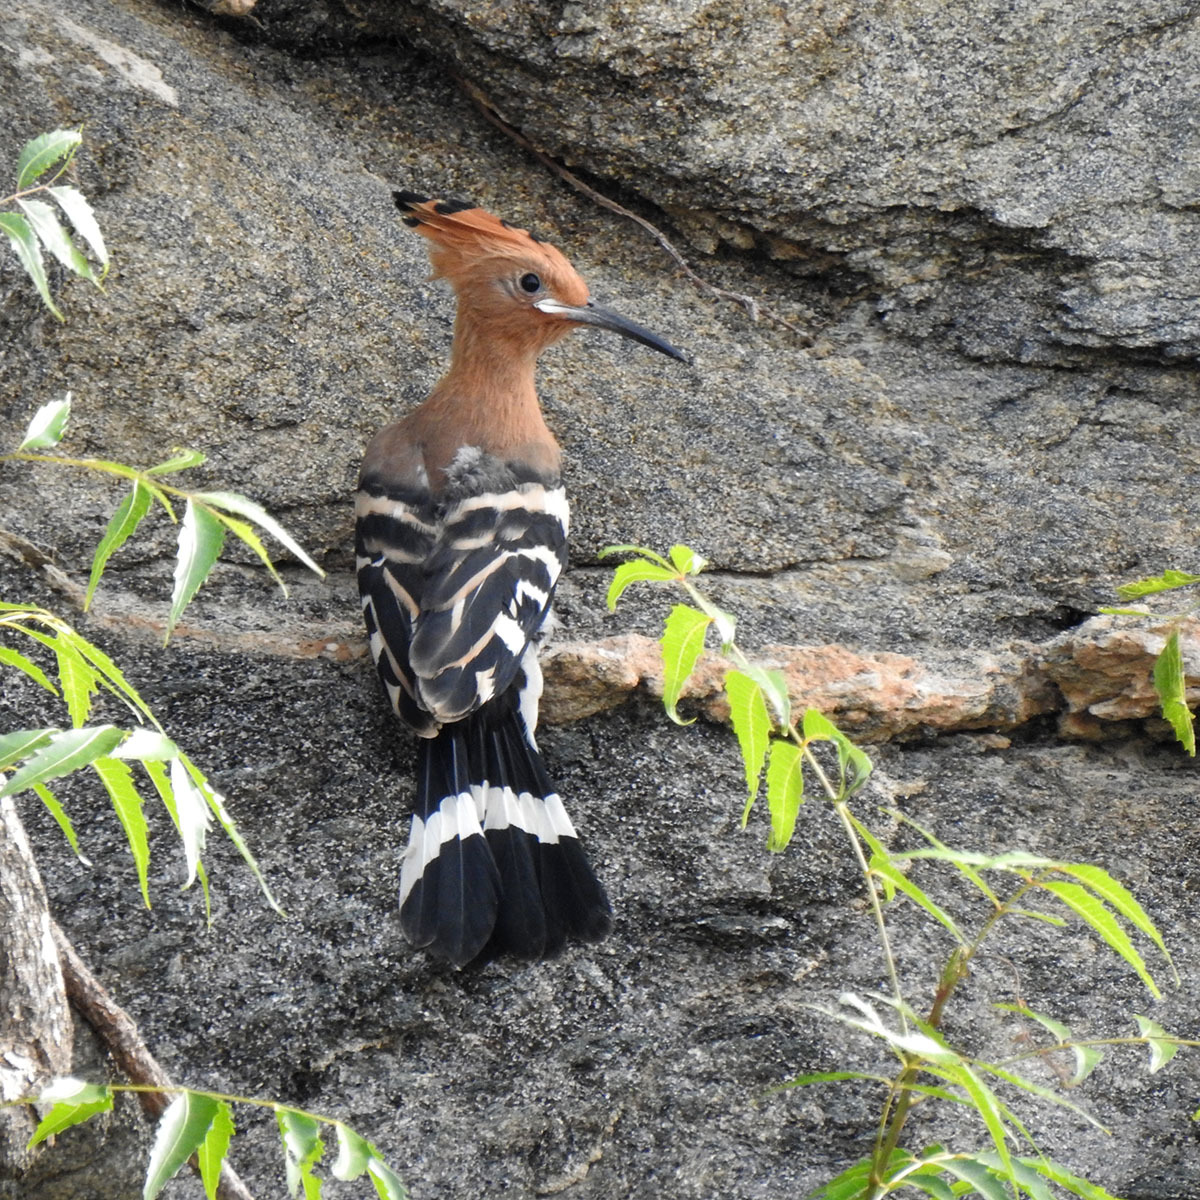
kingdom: Animalia
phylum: Chordata
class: Aves
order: Bucerotiformes
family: Upupidae
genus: Upupa
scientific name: Upupa epops
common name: Eurasian hoopoe
